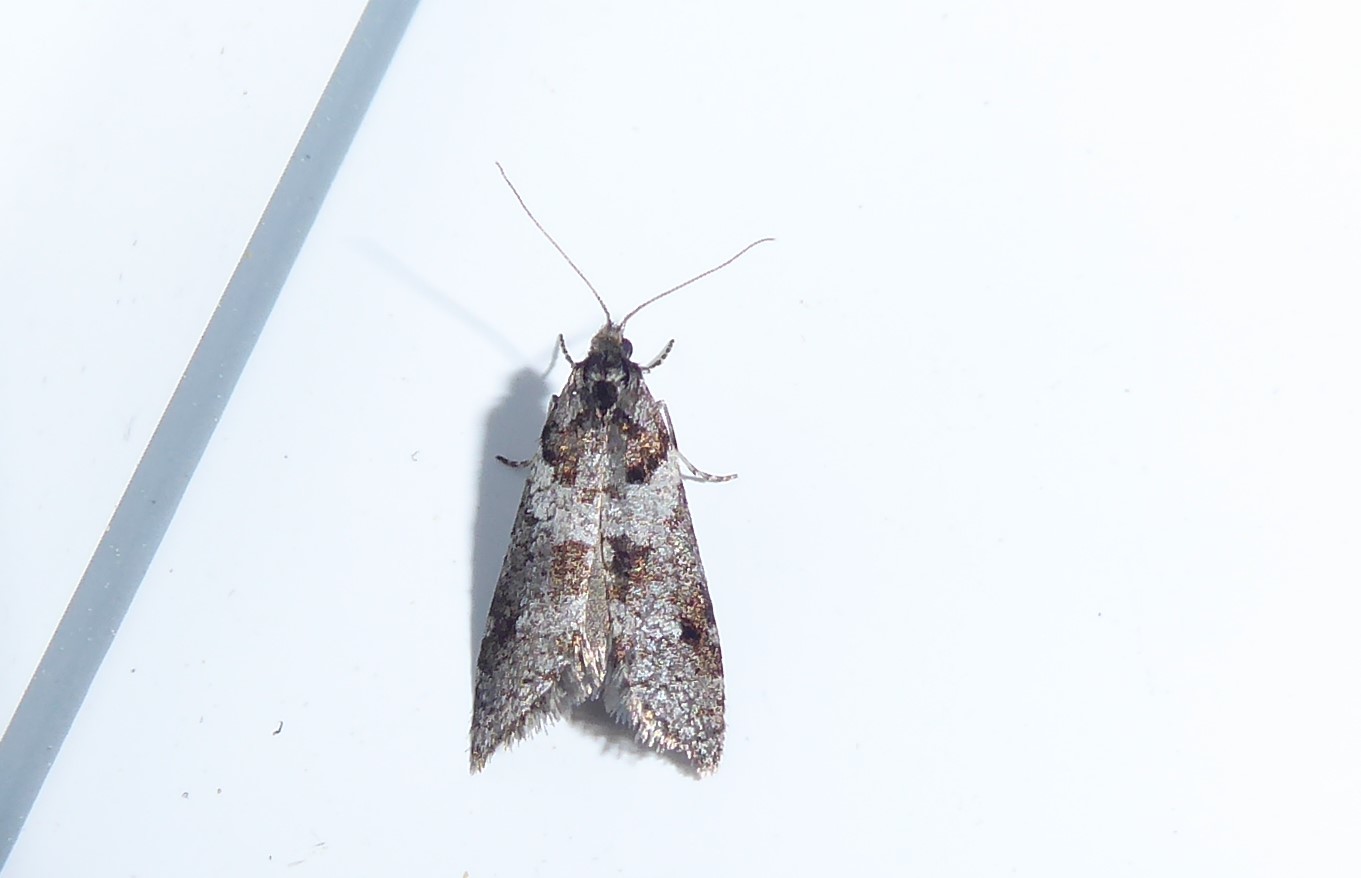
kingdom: Animalia
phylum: Arthropoda
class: Insecta
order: Lepidoptera
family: Psychidae
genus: Lepidoscia
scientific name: Lepidoscia heliochares
